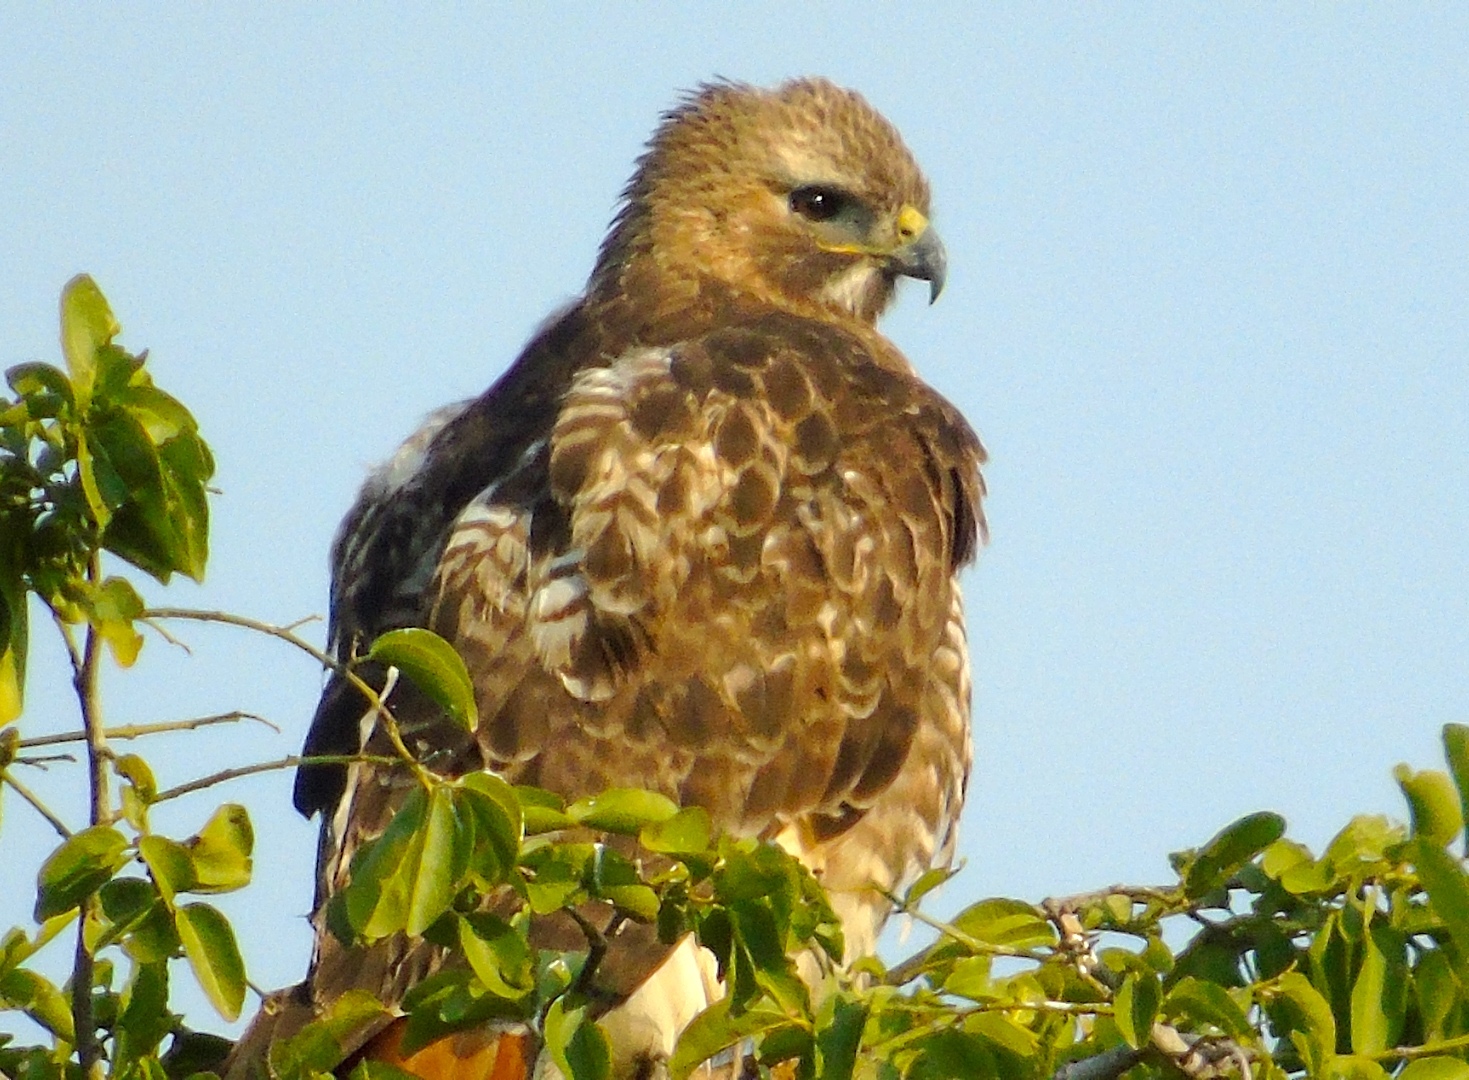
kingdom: Animalia
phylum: Chordata
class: Aves
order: Accipitriformes
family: Accipitridae
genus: Buteo
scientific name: Buteo jamaicensis
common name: Red-tailed hawk
